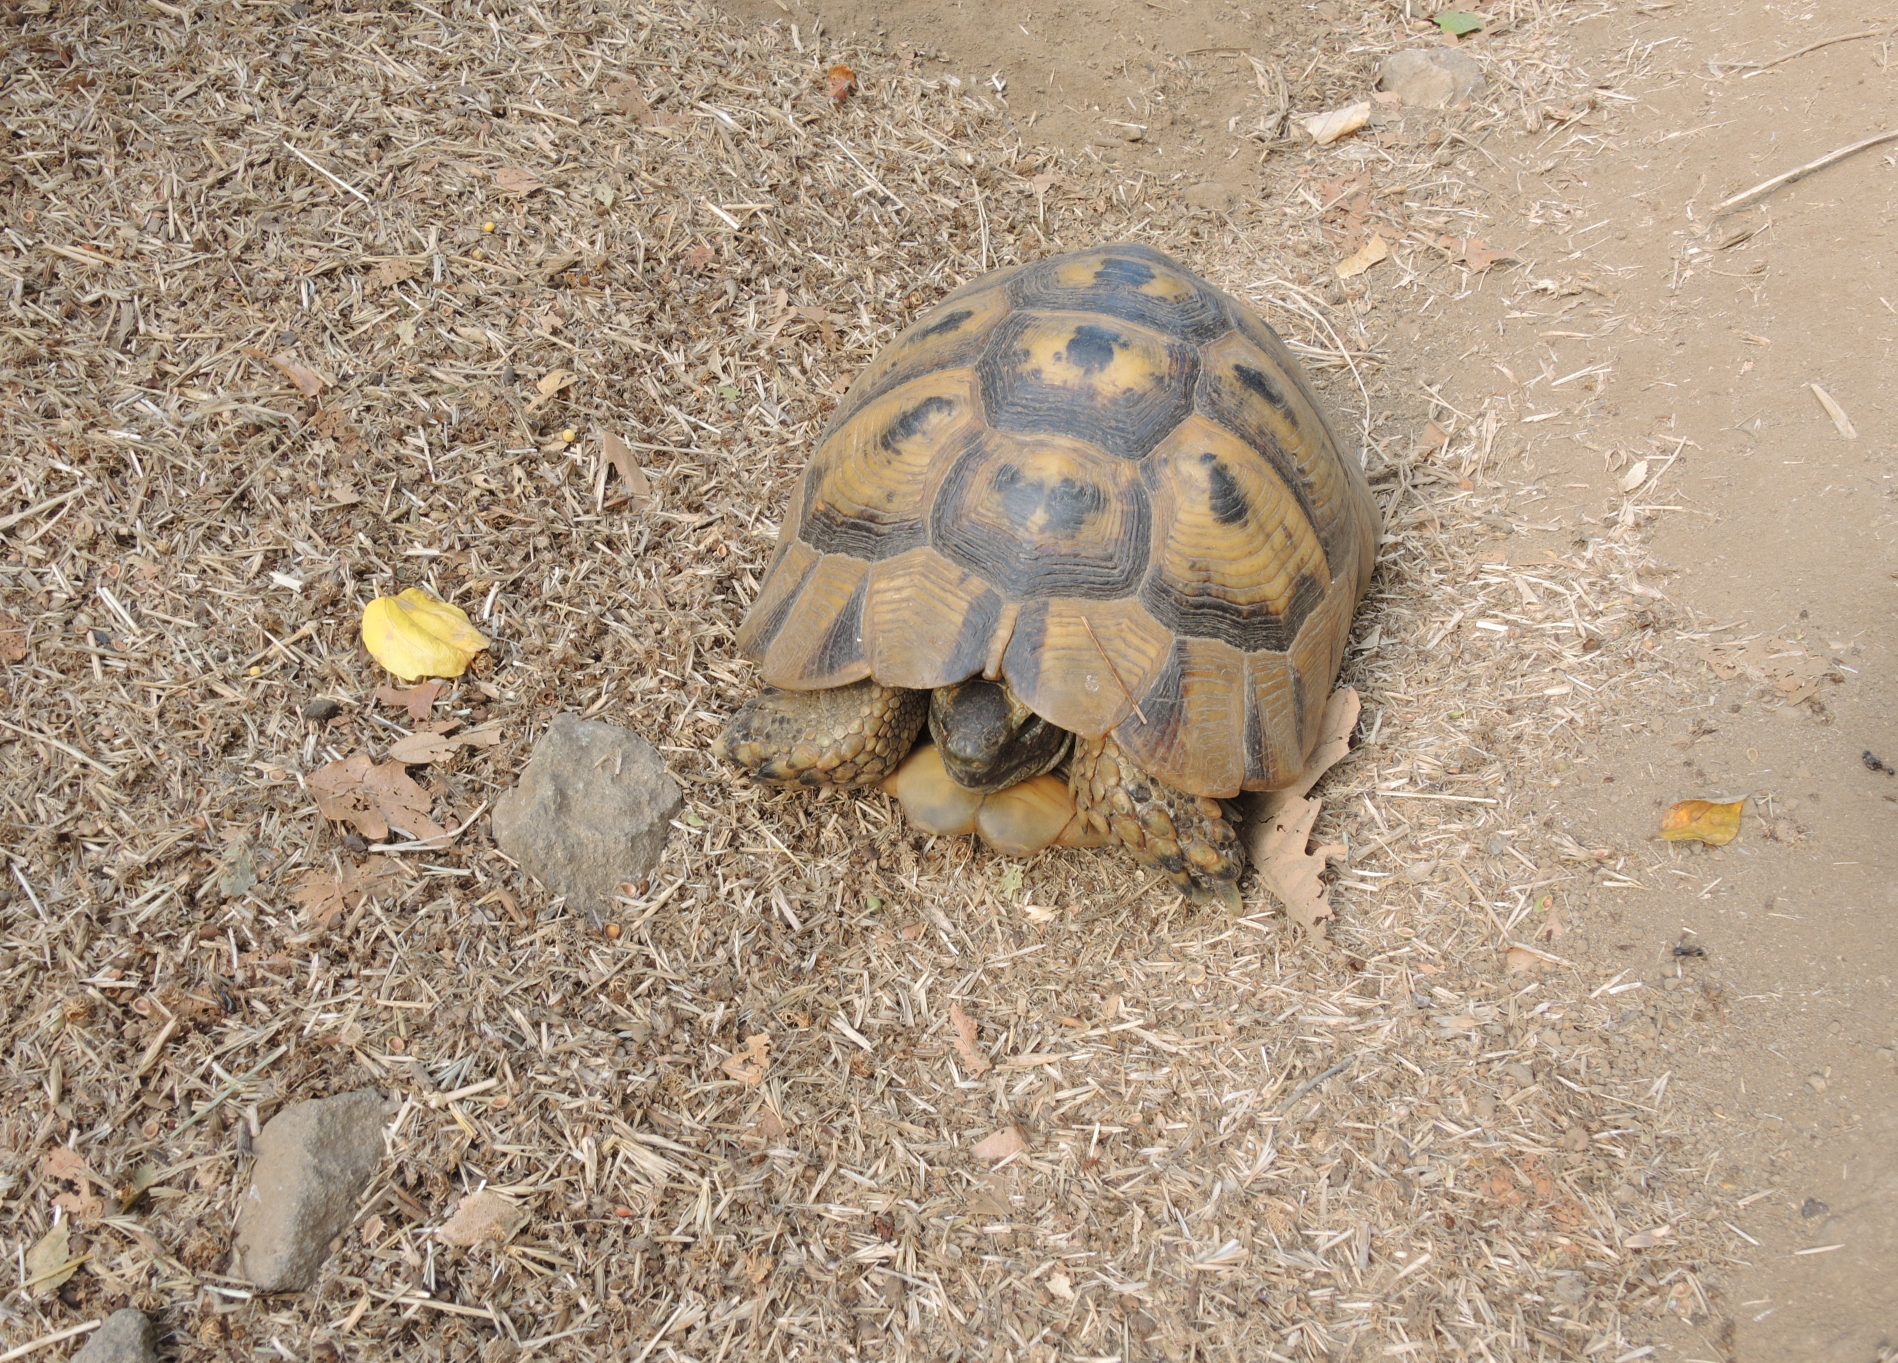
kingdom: Animalia
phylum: Chordata
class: Testudines
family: Testudinidae
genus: Testudo
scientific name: Testudo graeca
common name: Common tortoise
